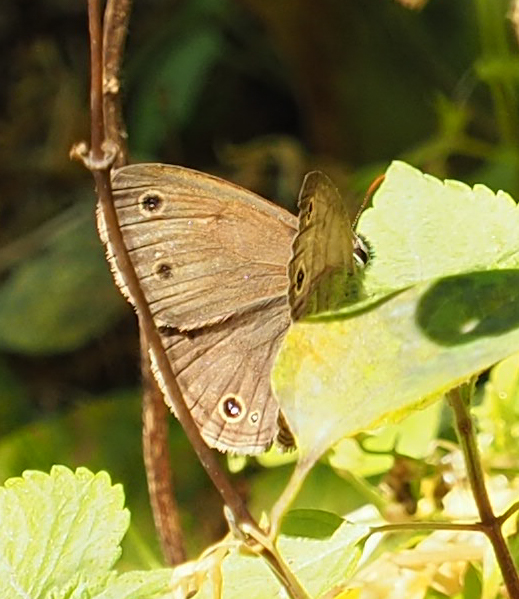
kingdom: Animalia
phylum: Arthropoda
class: Insecta
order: Lepidoptera
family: Nymphalidae
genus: Euptychia
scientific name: Euptychia cymela
